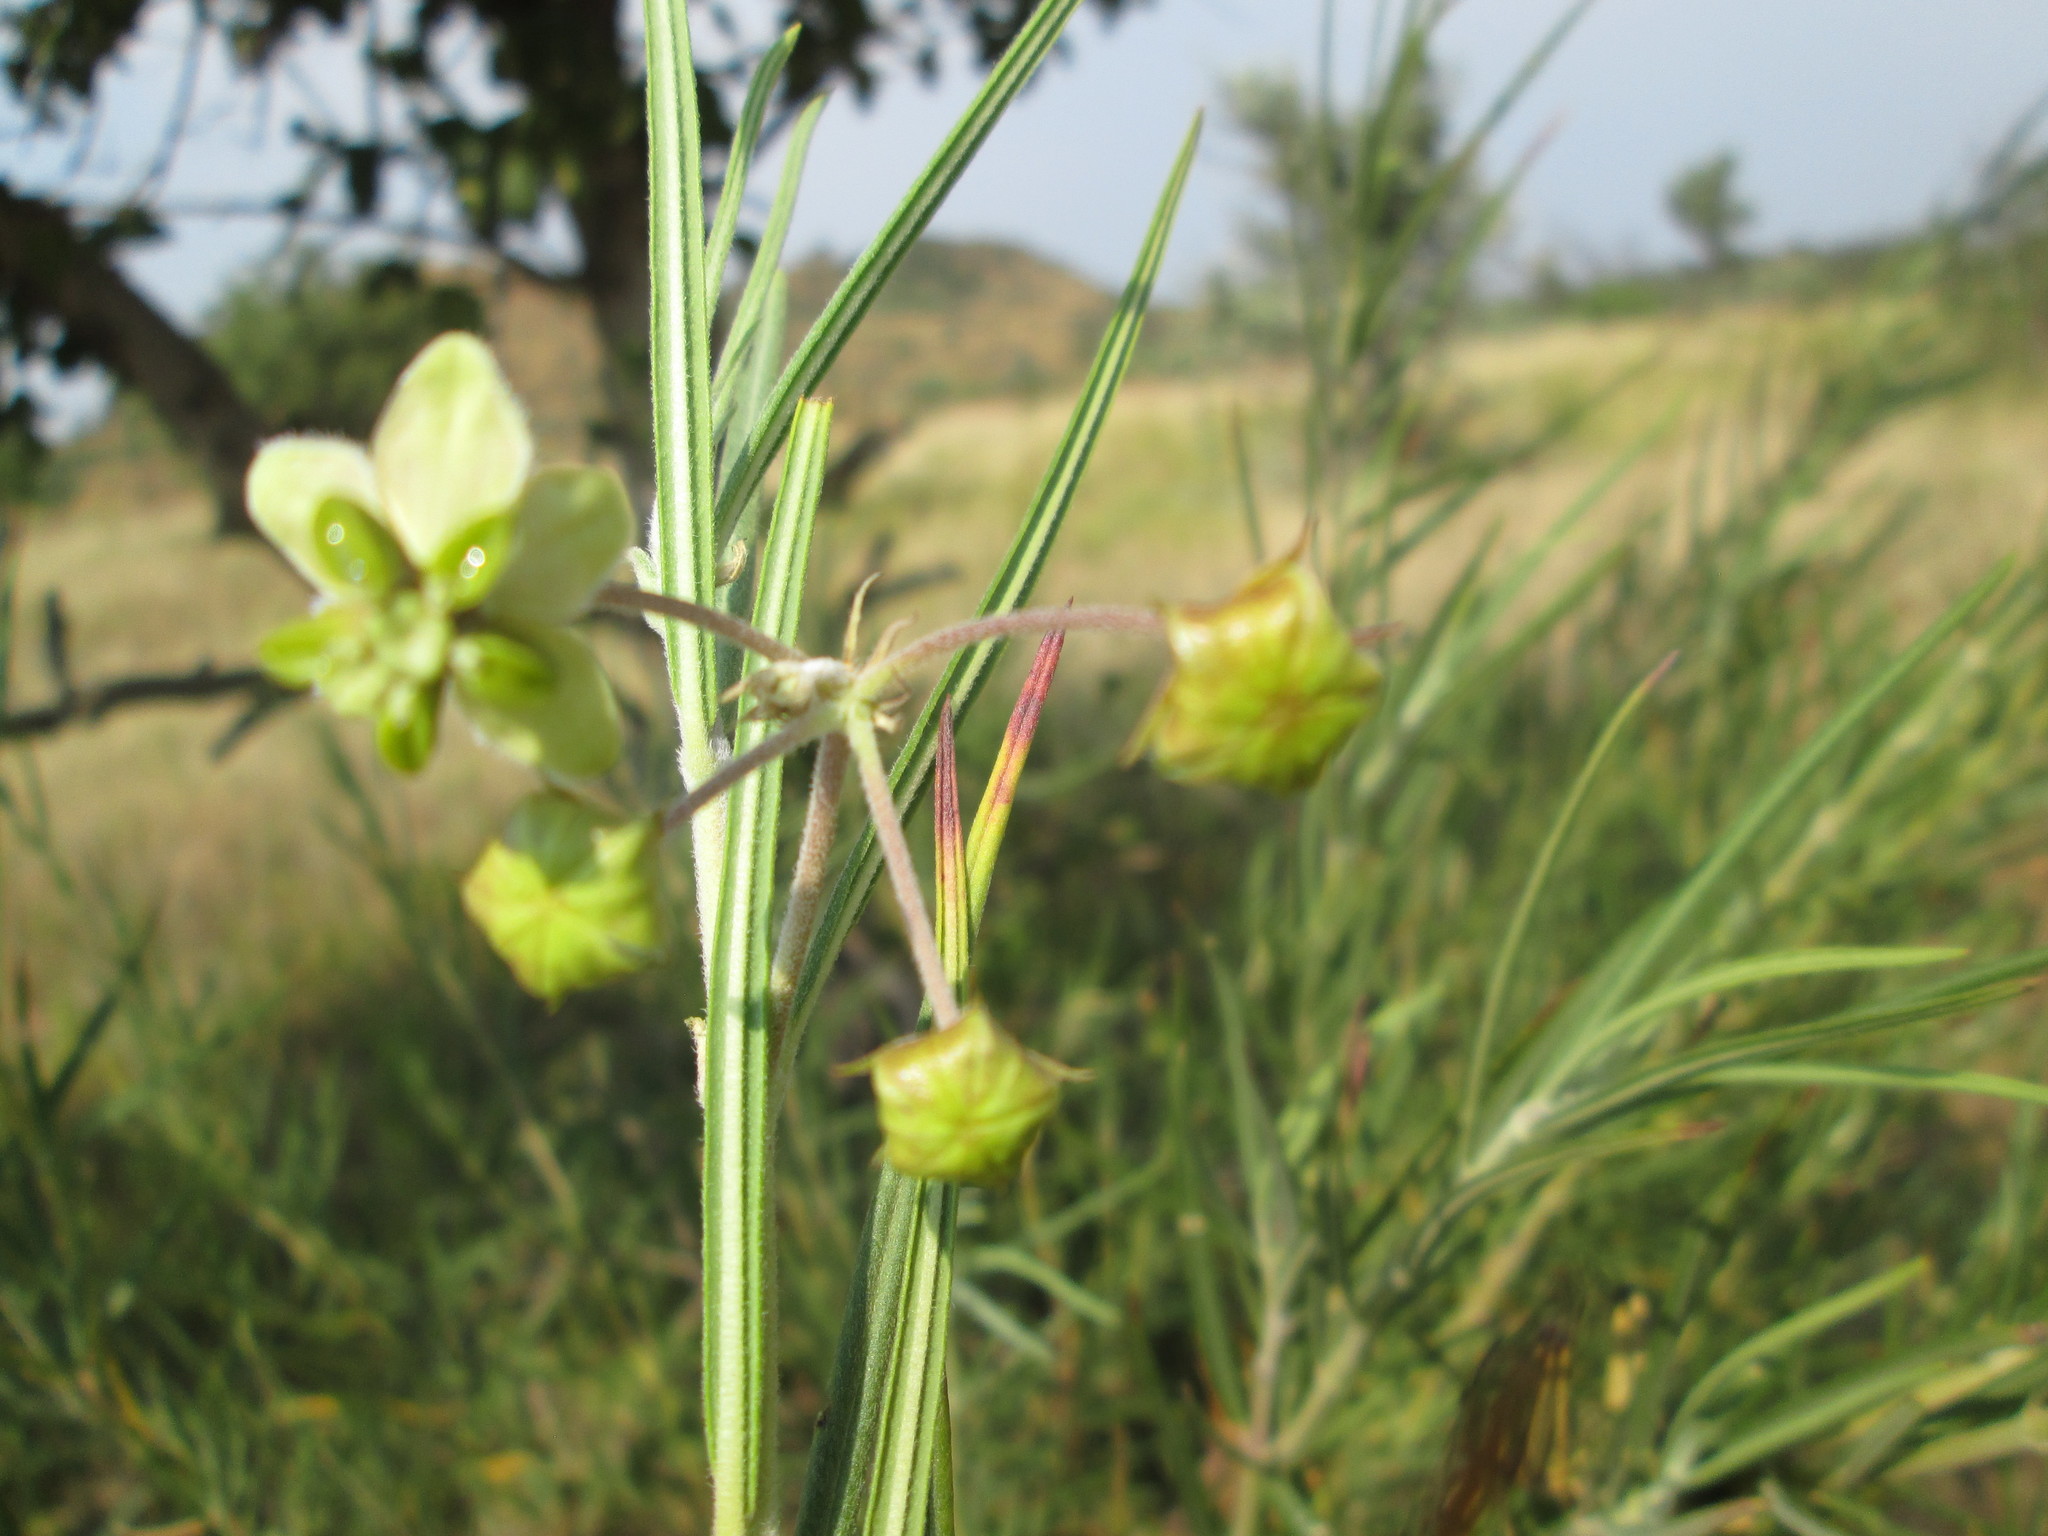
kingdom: Plantae
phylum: Tracheophyta
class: Magnoliopsida
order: Gentianales
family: Apocynaceae
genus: Gomphocarpus
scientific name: Gomphocarpus tomentosus
